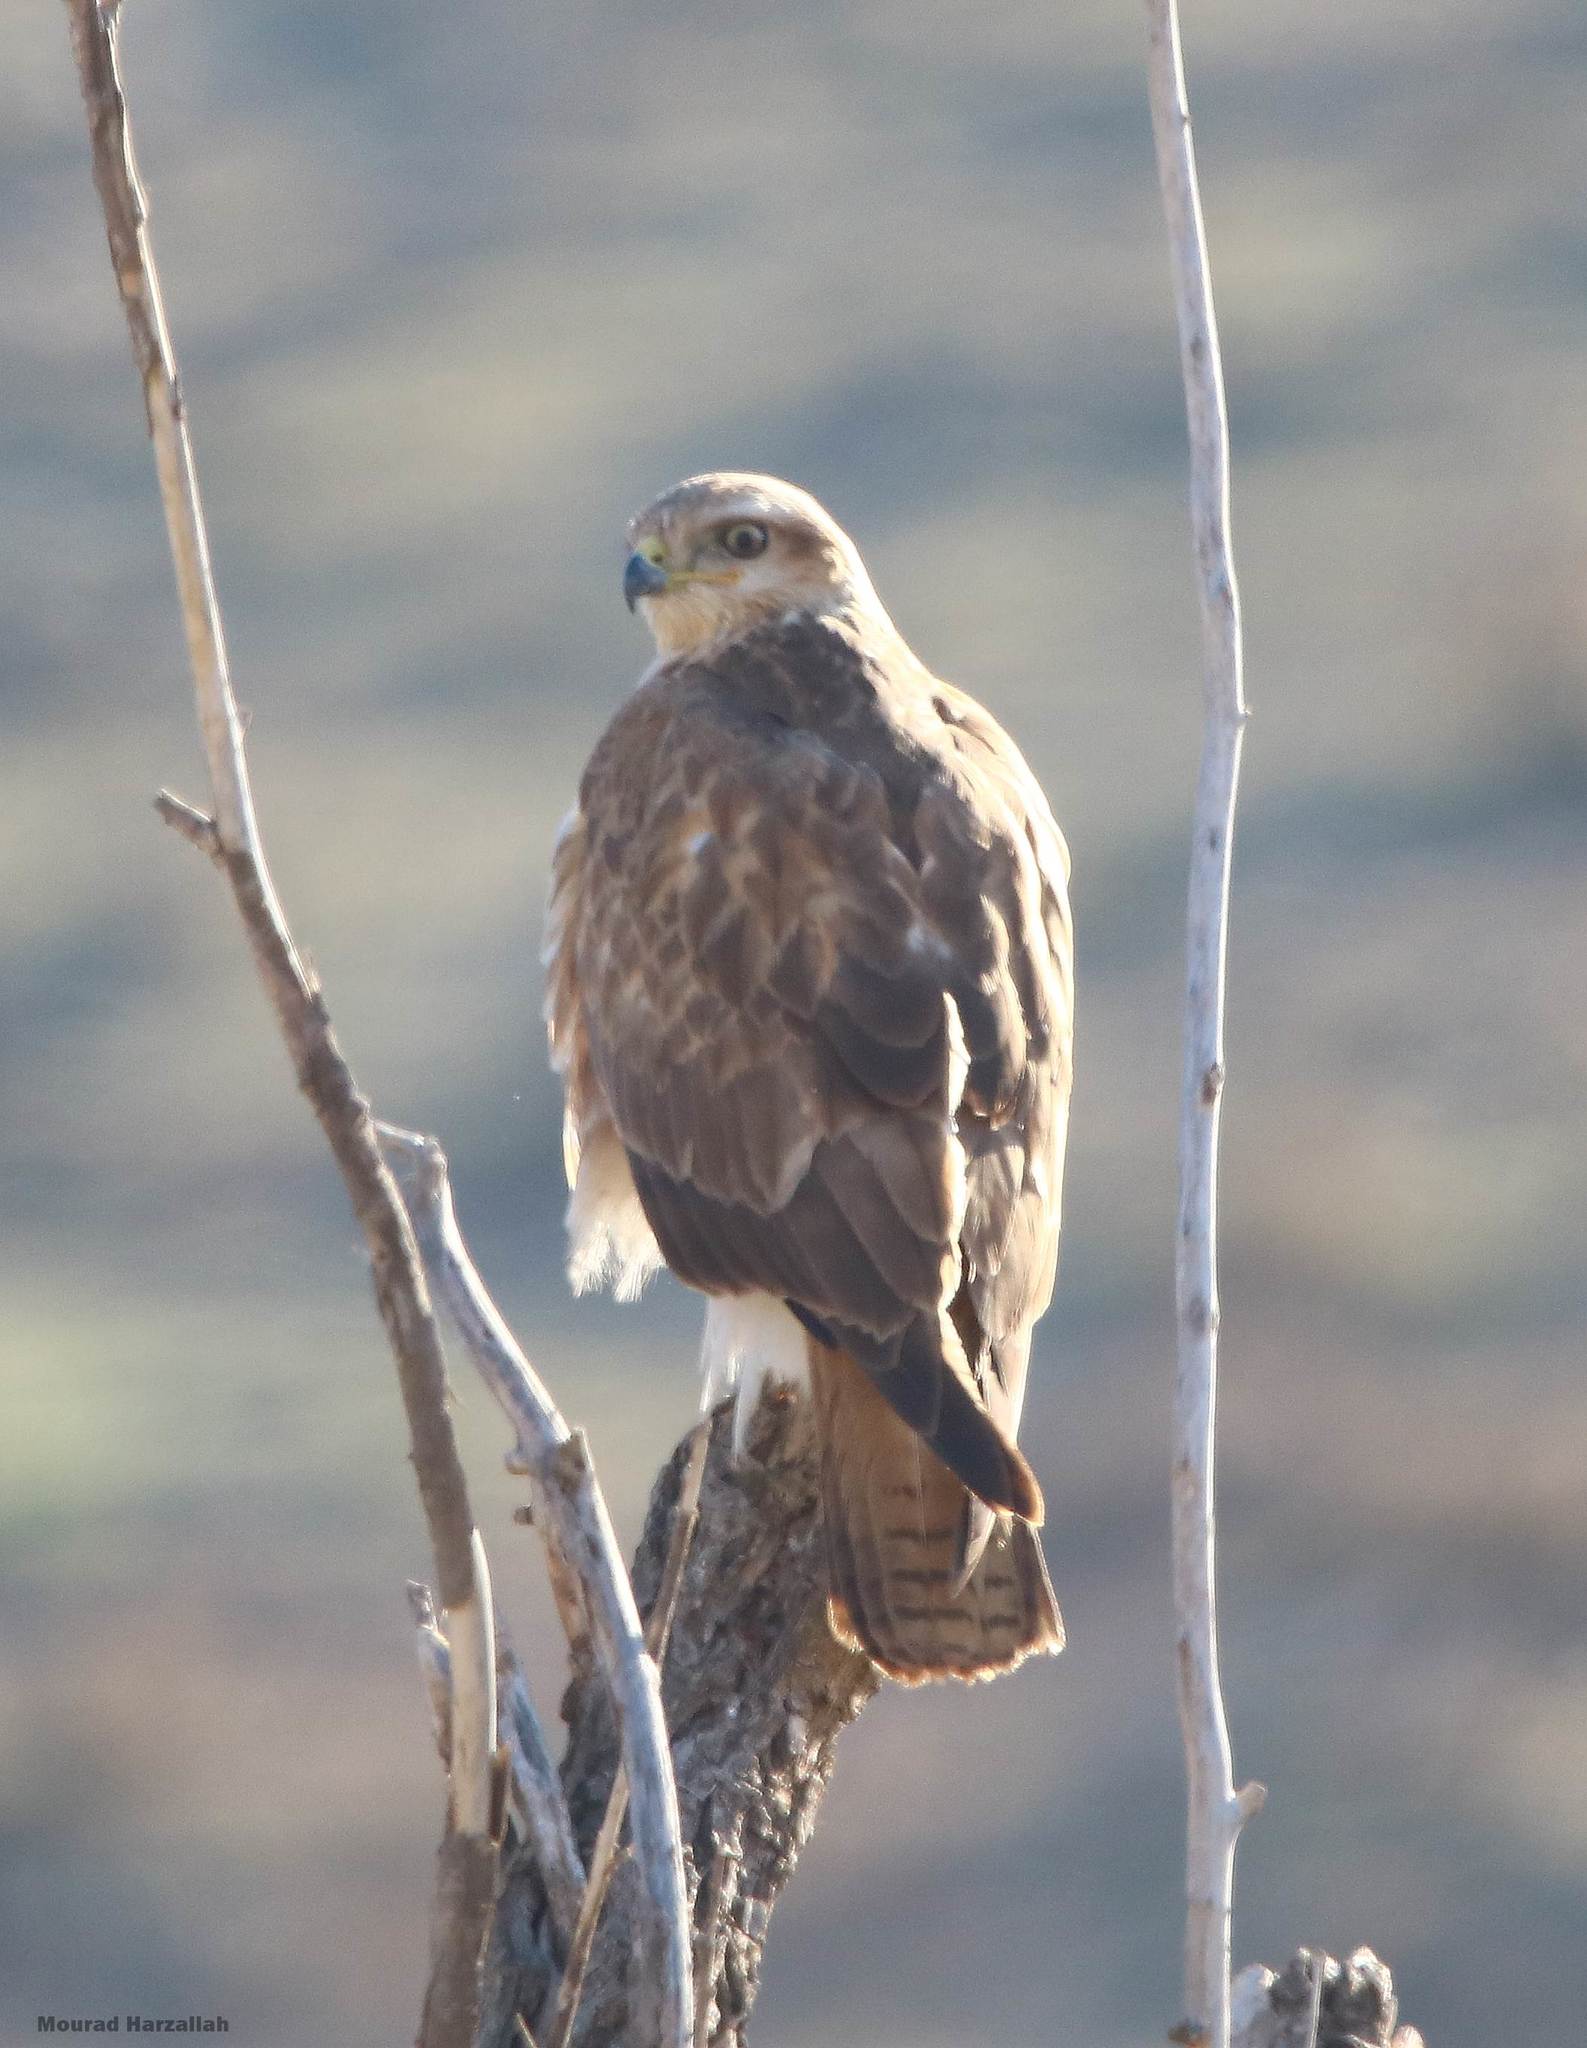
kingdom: Animalia
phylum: Chordata
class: Aves
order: Accipitriformes
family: Accipitridae
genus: Buteo
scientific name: Buteo rufinus
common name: Long-legged buzzard
